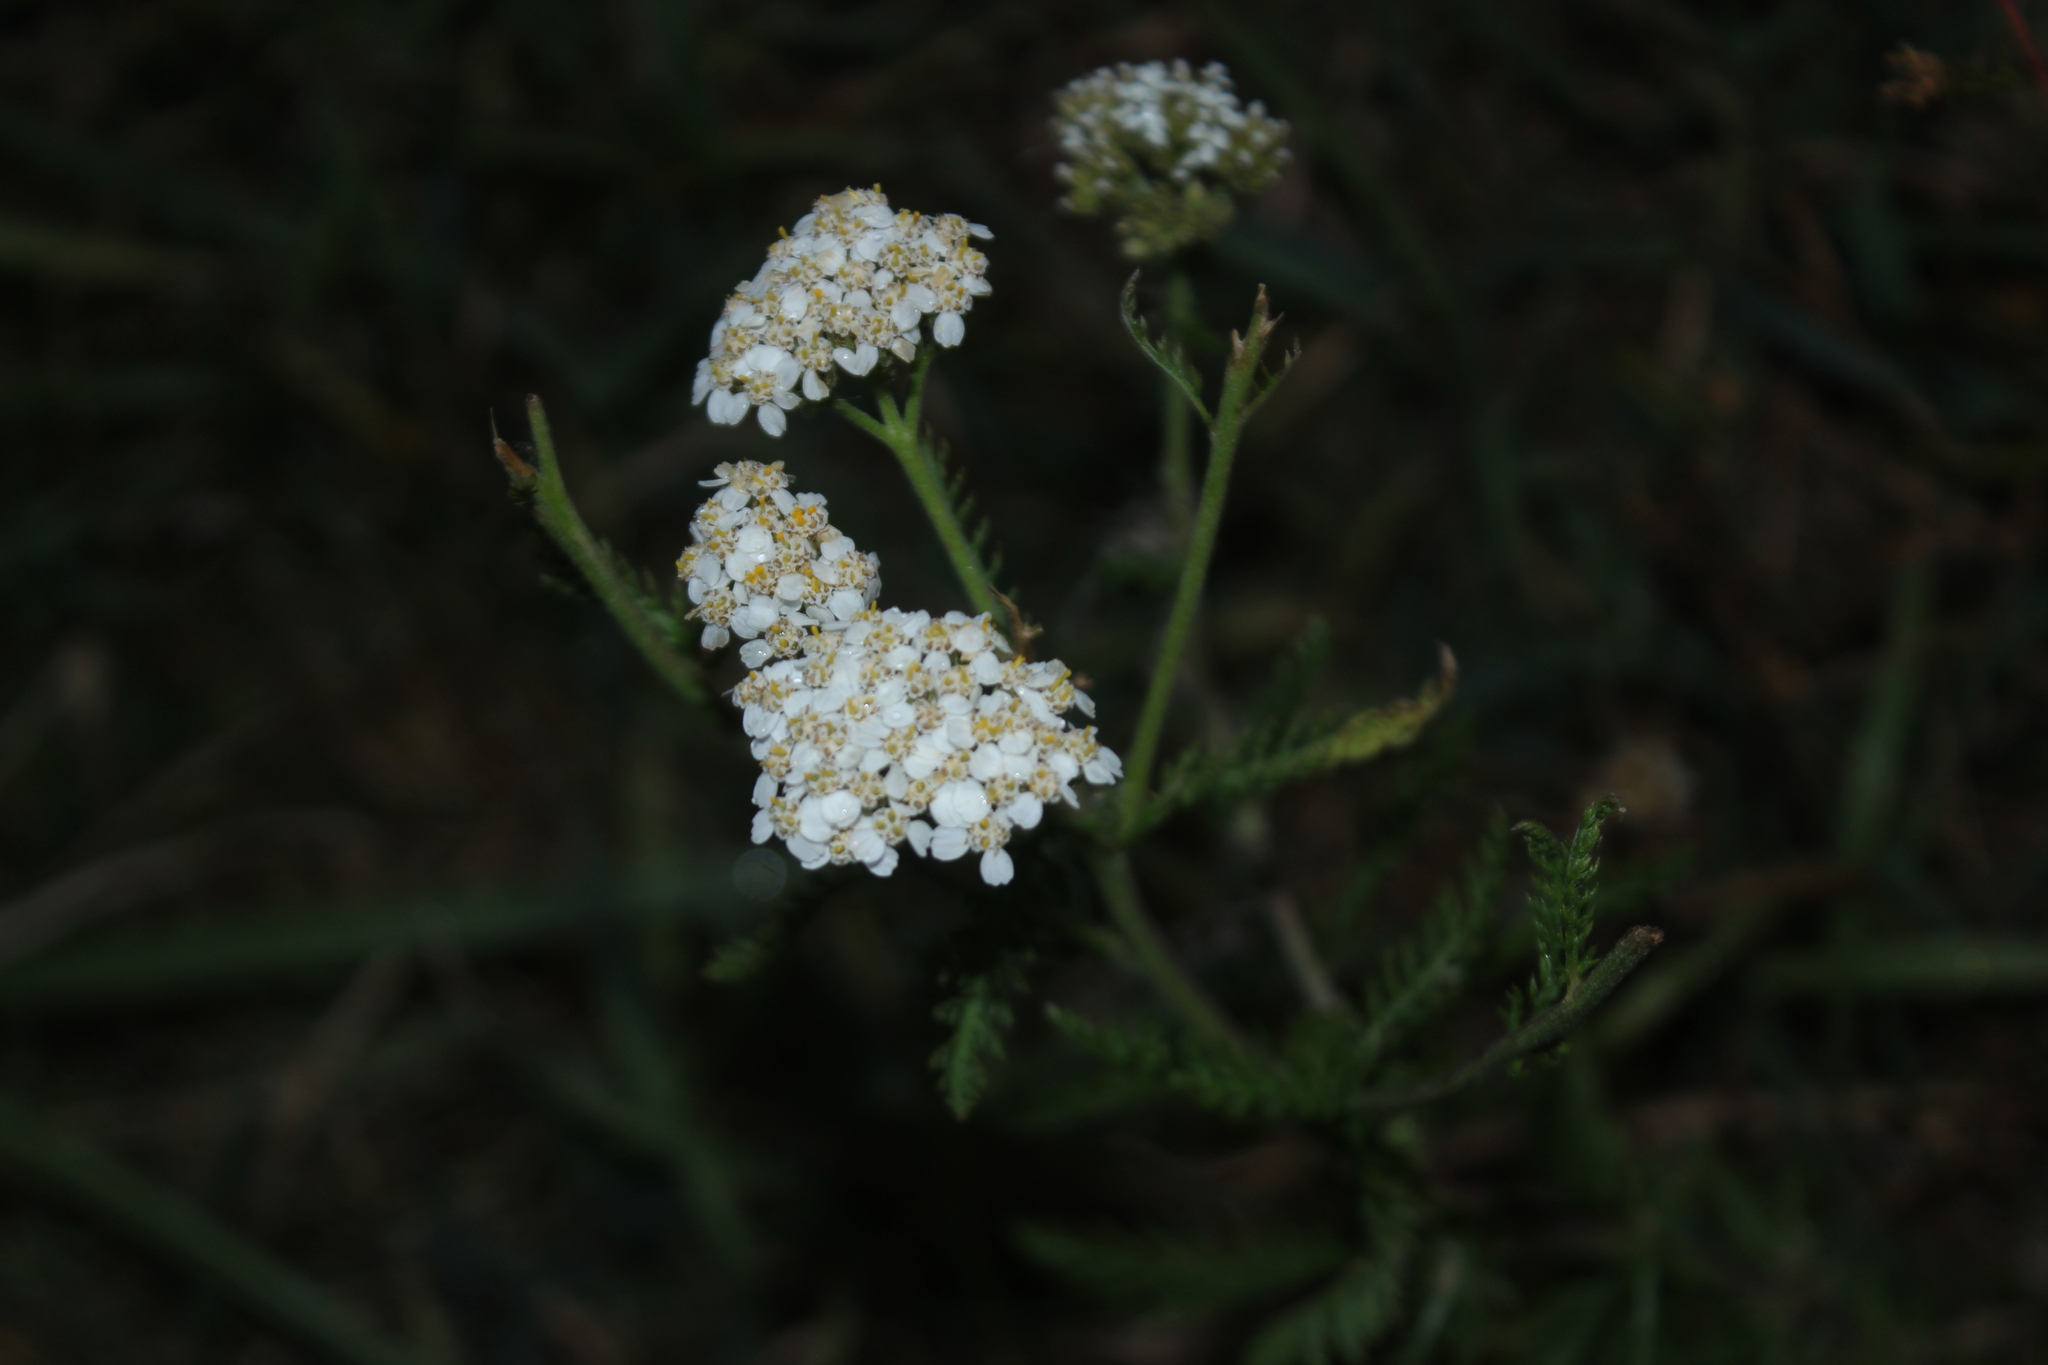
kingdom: Plantae
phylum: Tracheophyta
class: Magnoliopsida
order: Asterales
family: Asteraceae
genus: Achillea
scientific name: Achillea millefolium
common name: Yarrow
